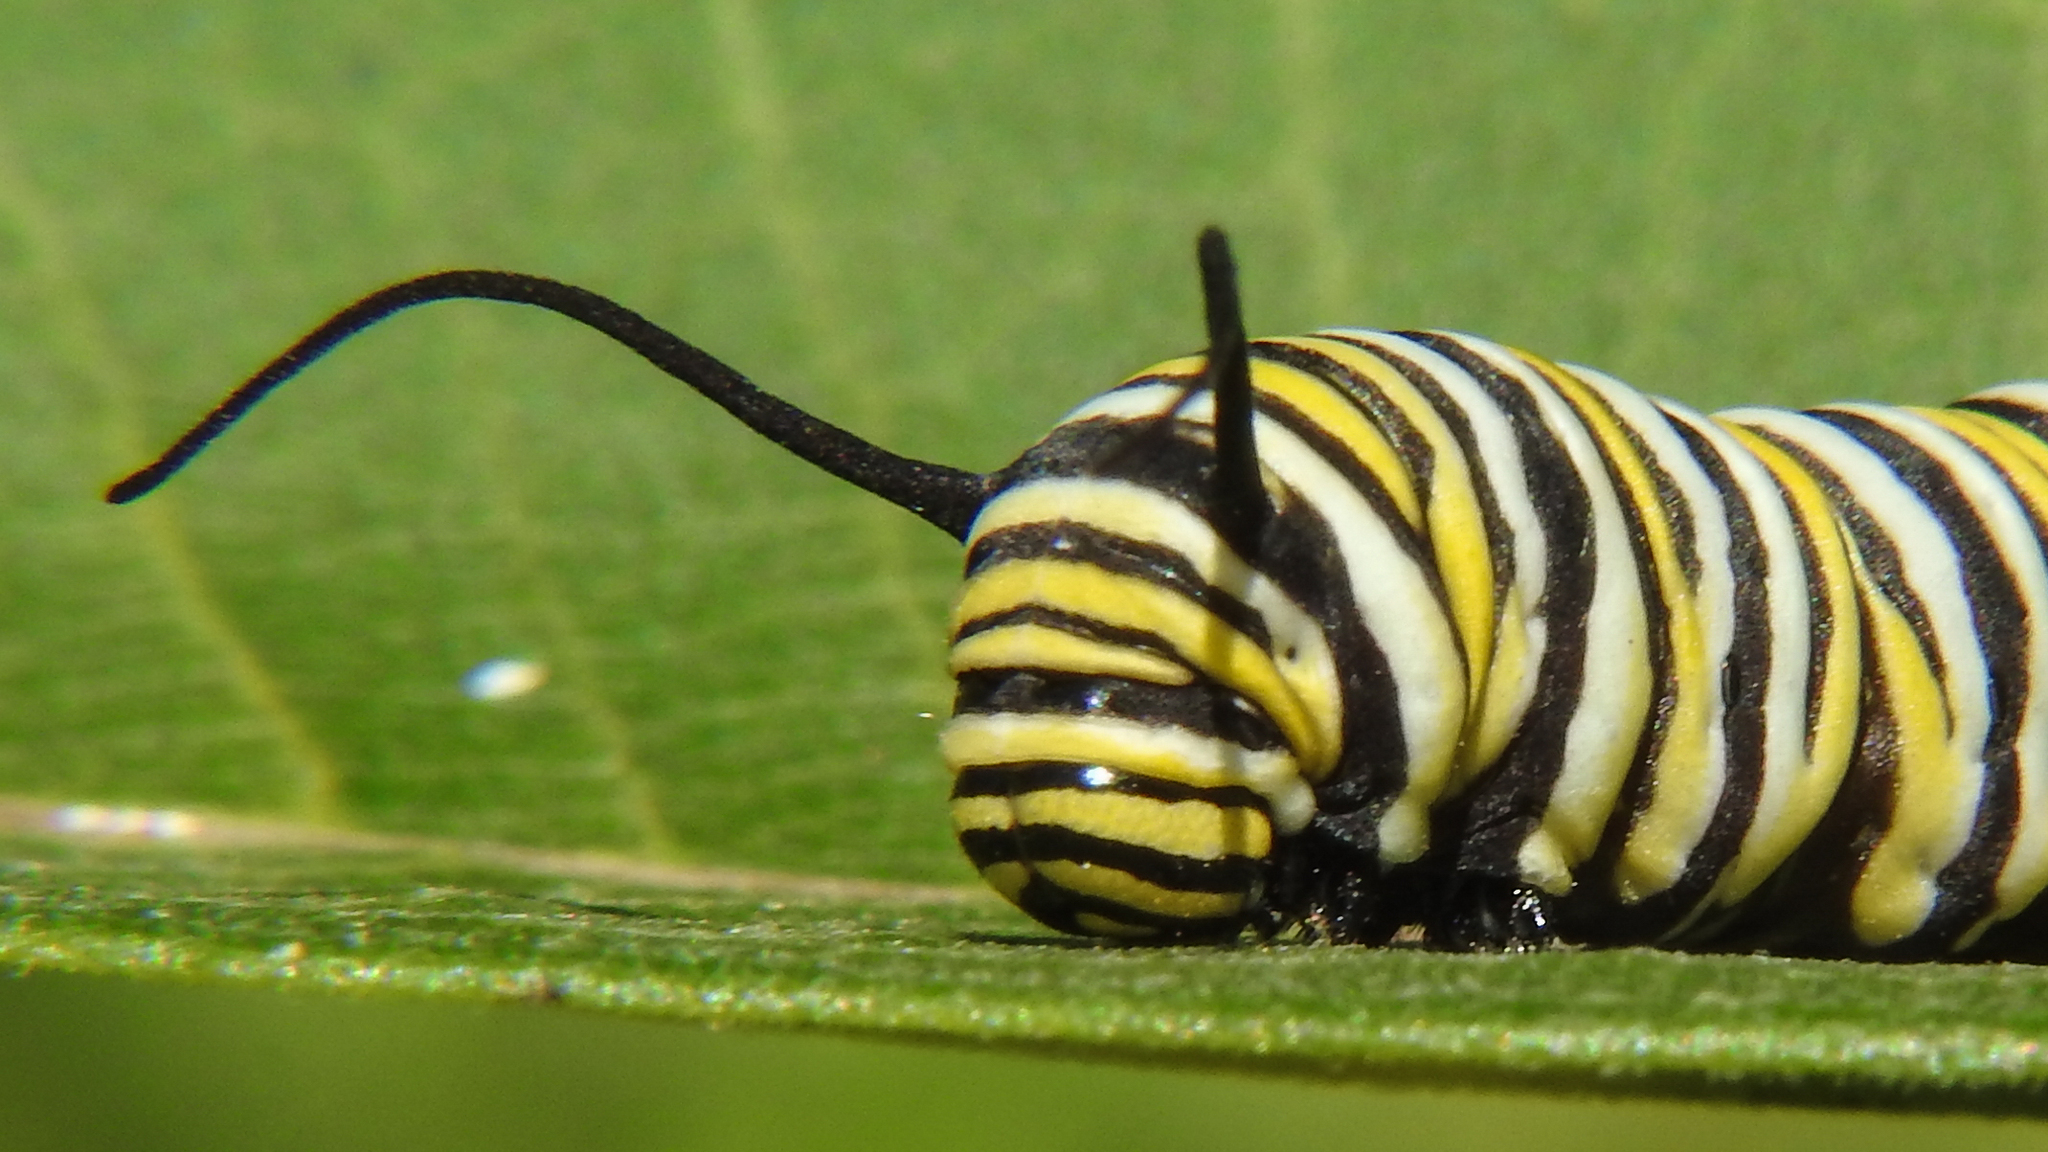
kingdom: Animalia
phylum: Arthropoda
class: Insecta
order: Lepidoptera
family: Nymphalidae
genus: Danaus
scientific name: Danaus plexippus
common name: Monarch
